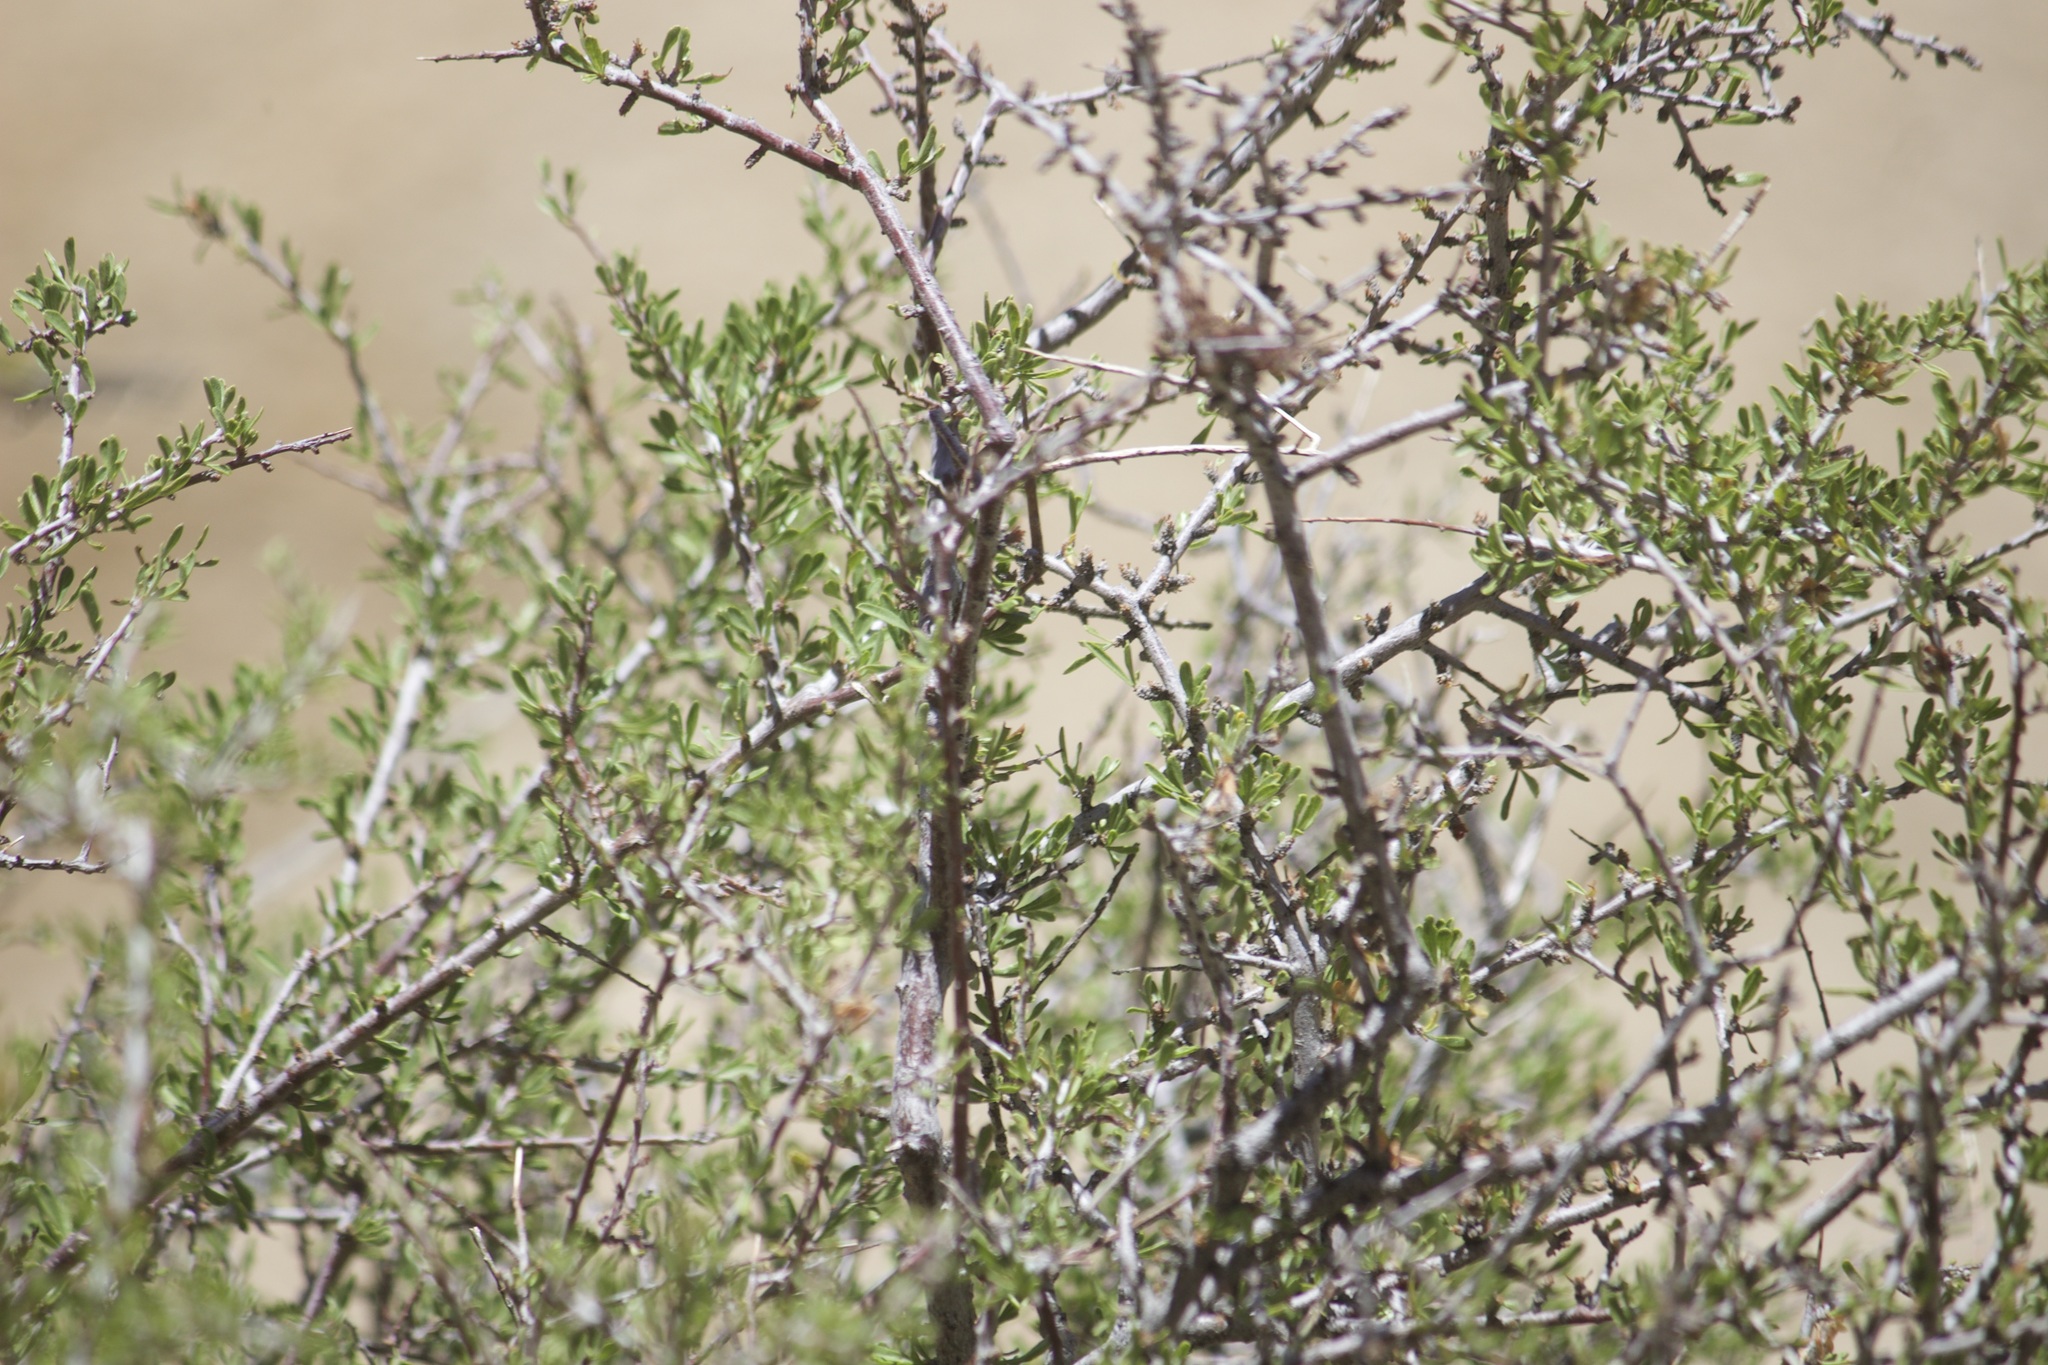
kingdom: Plantae
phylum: Tracheophyta
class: Magnoliopsida
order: Rosales
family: Rosaceae
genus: Prunus
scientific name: Prunus fasciculata
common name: Desert almond
